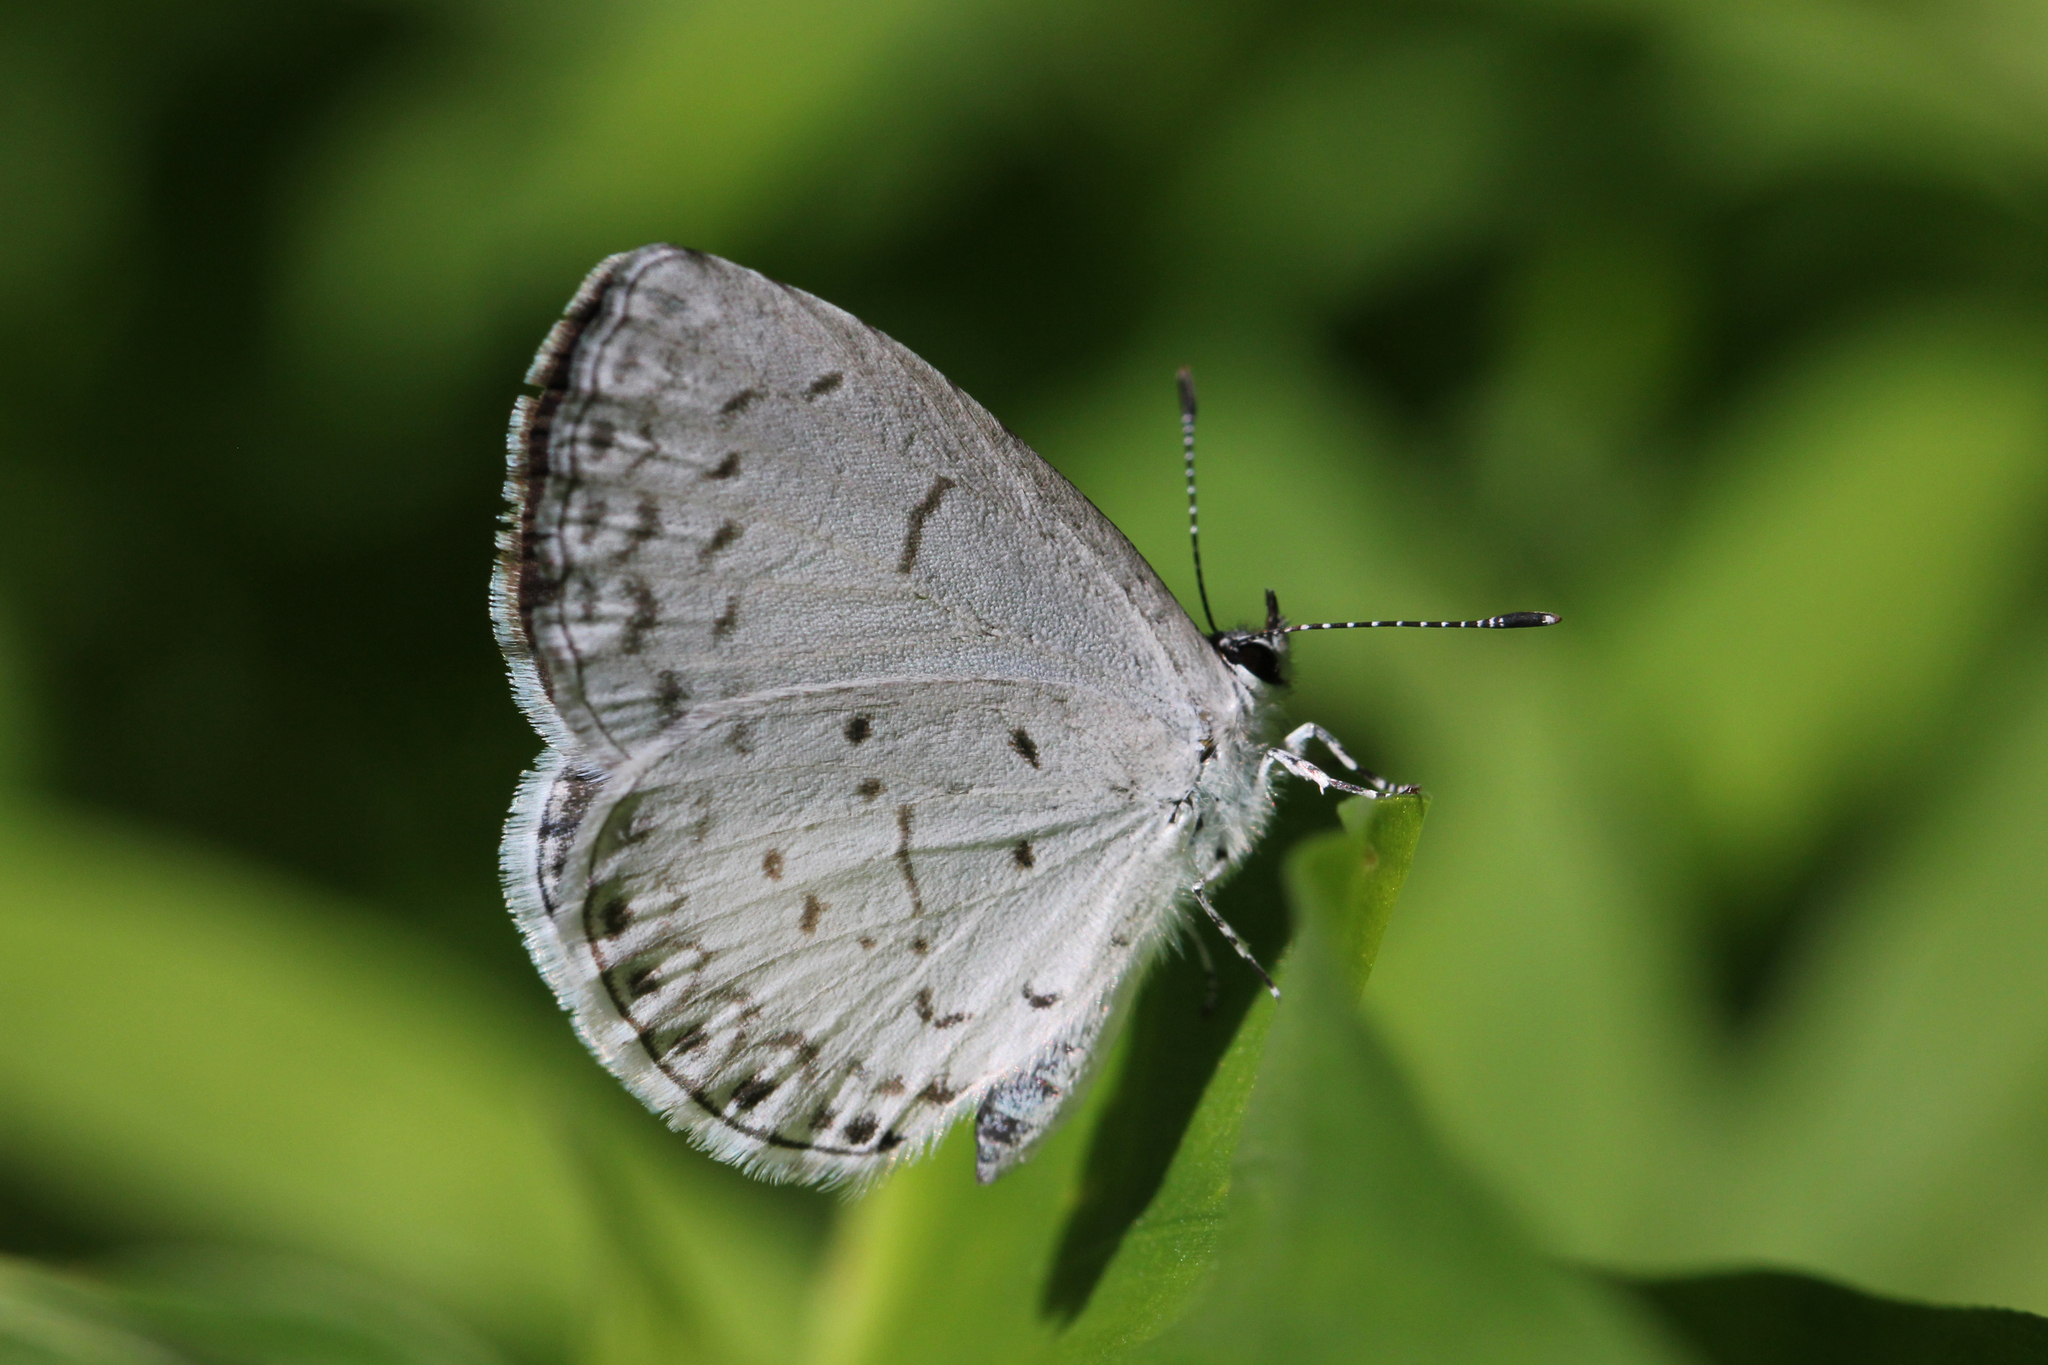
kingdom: Animalia
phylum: Arthropoda
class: Insecta
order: Lepidoptera
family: Lycaenidae
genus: Cyaniris
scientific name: Cyaniris neglecta
